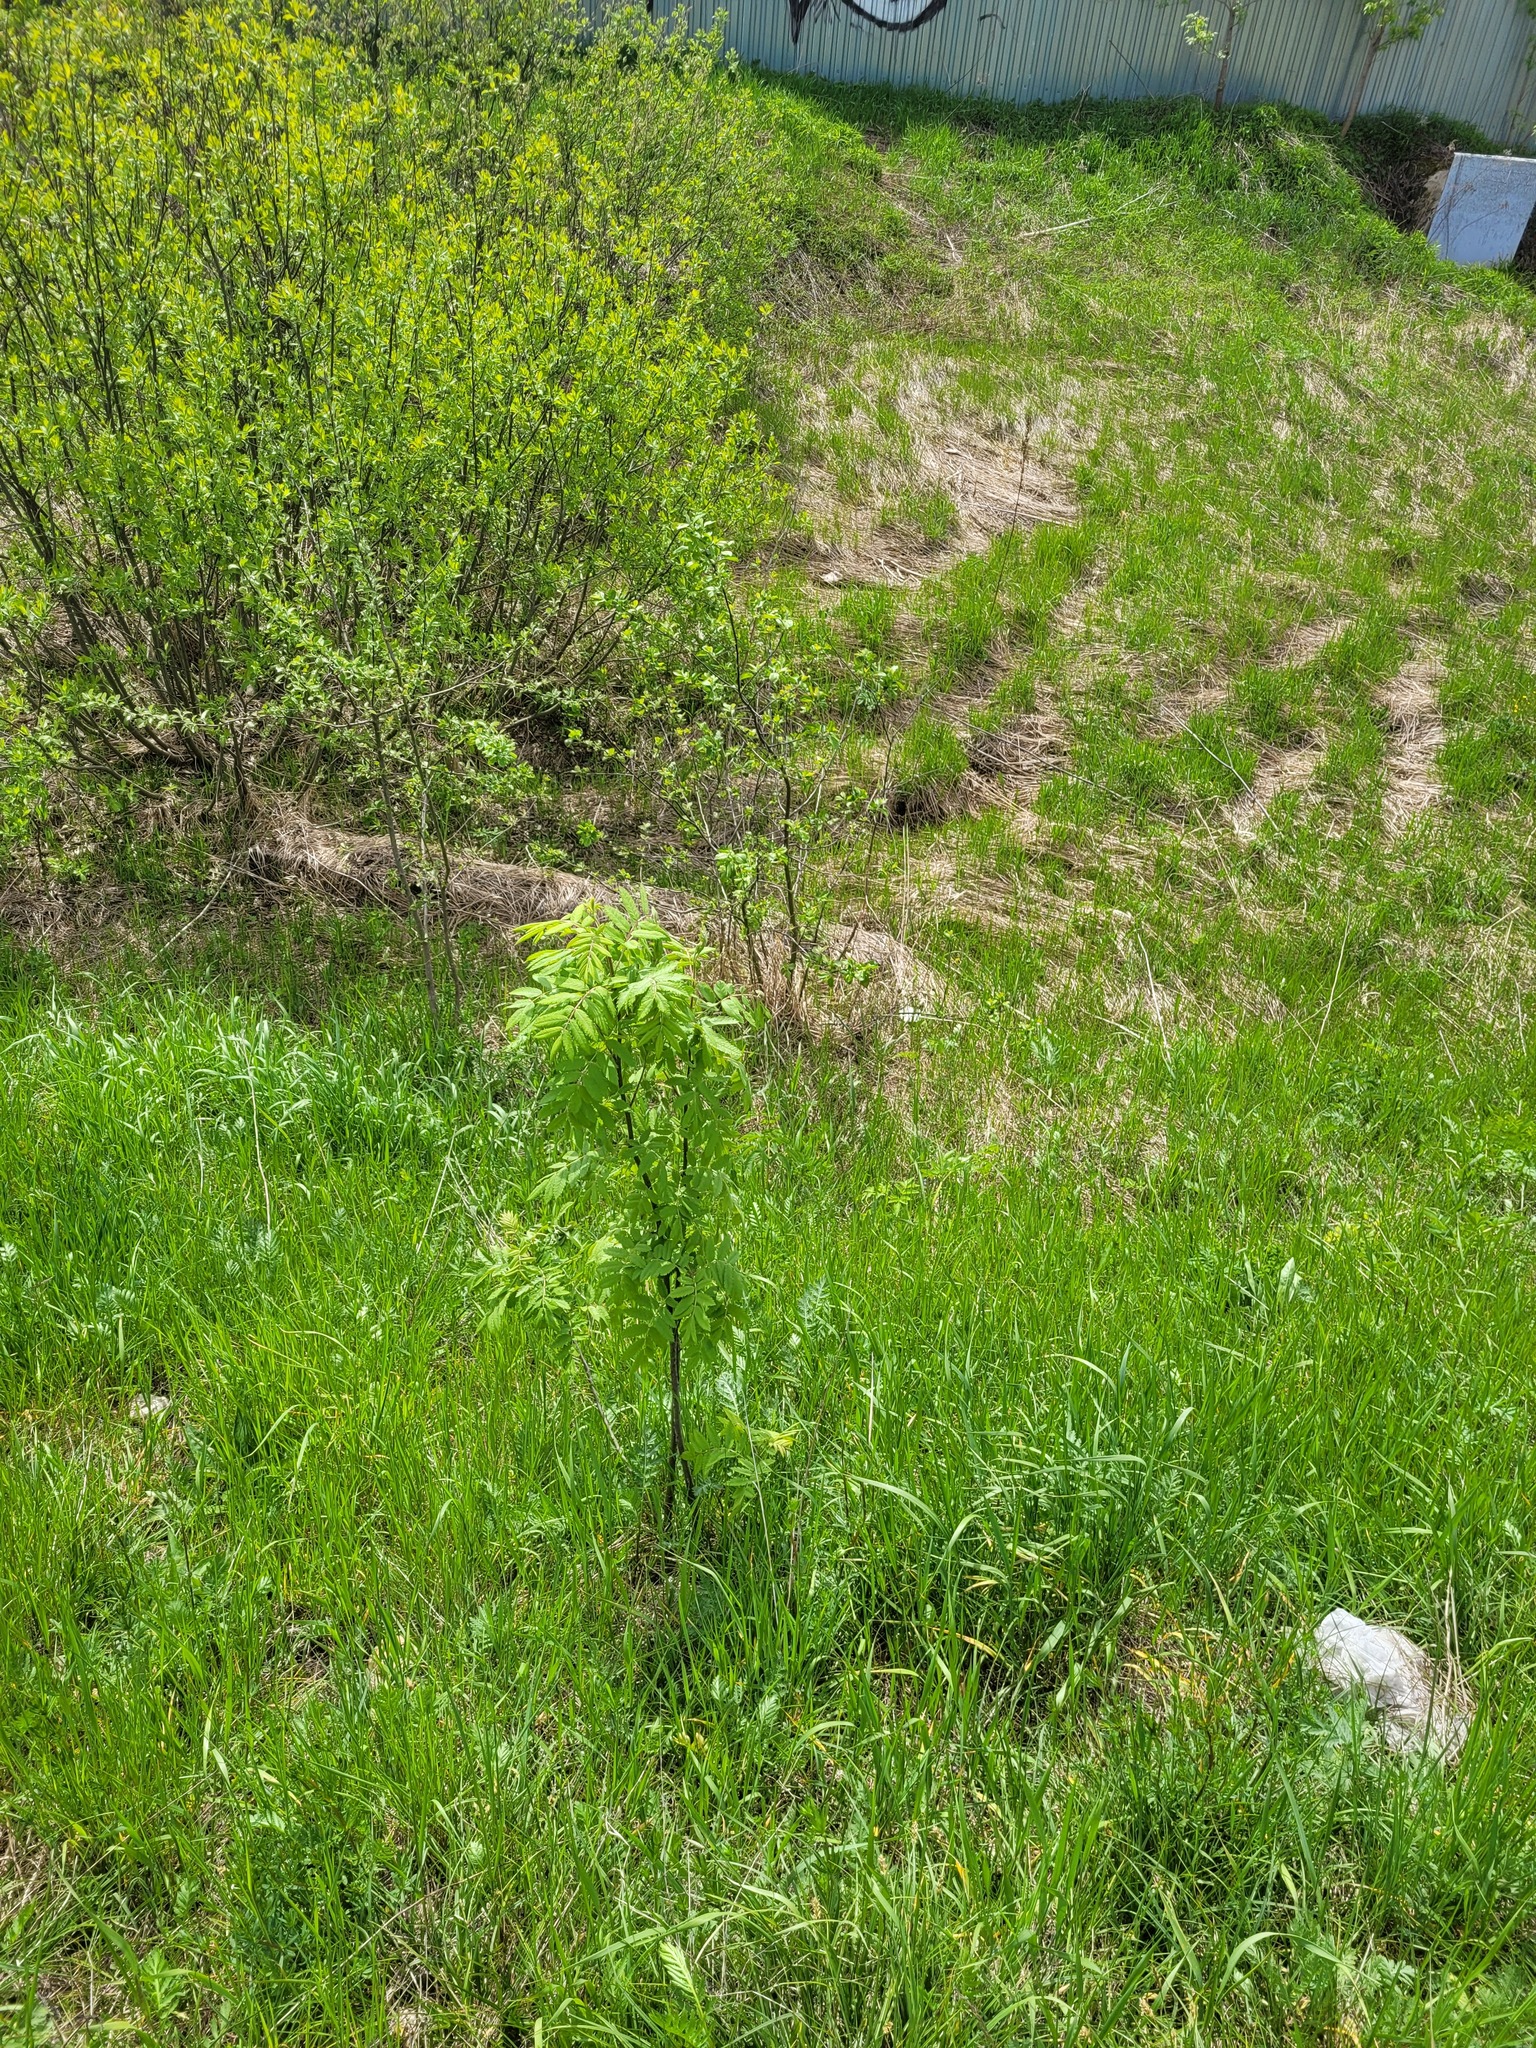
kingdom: Plantae
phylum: Tracheophyta
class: Magnoliopsida
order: Rosales
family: Rosaceae
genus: Sorbus
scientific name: Sorbus aucuparia
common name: Rowan
